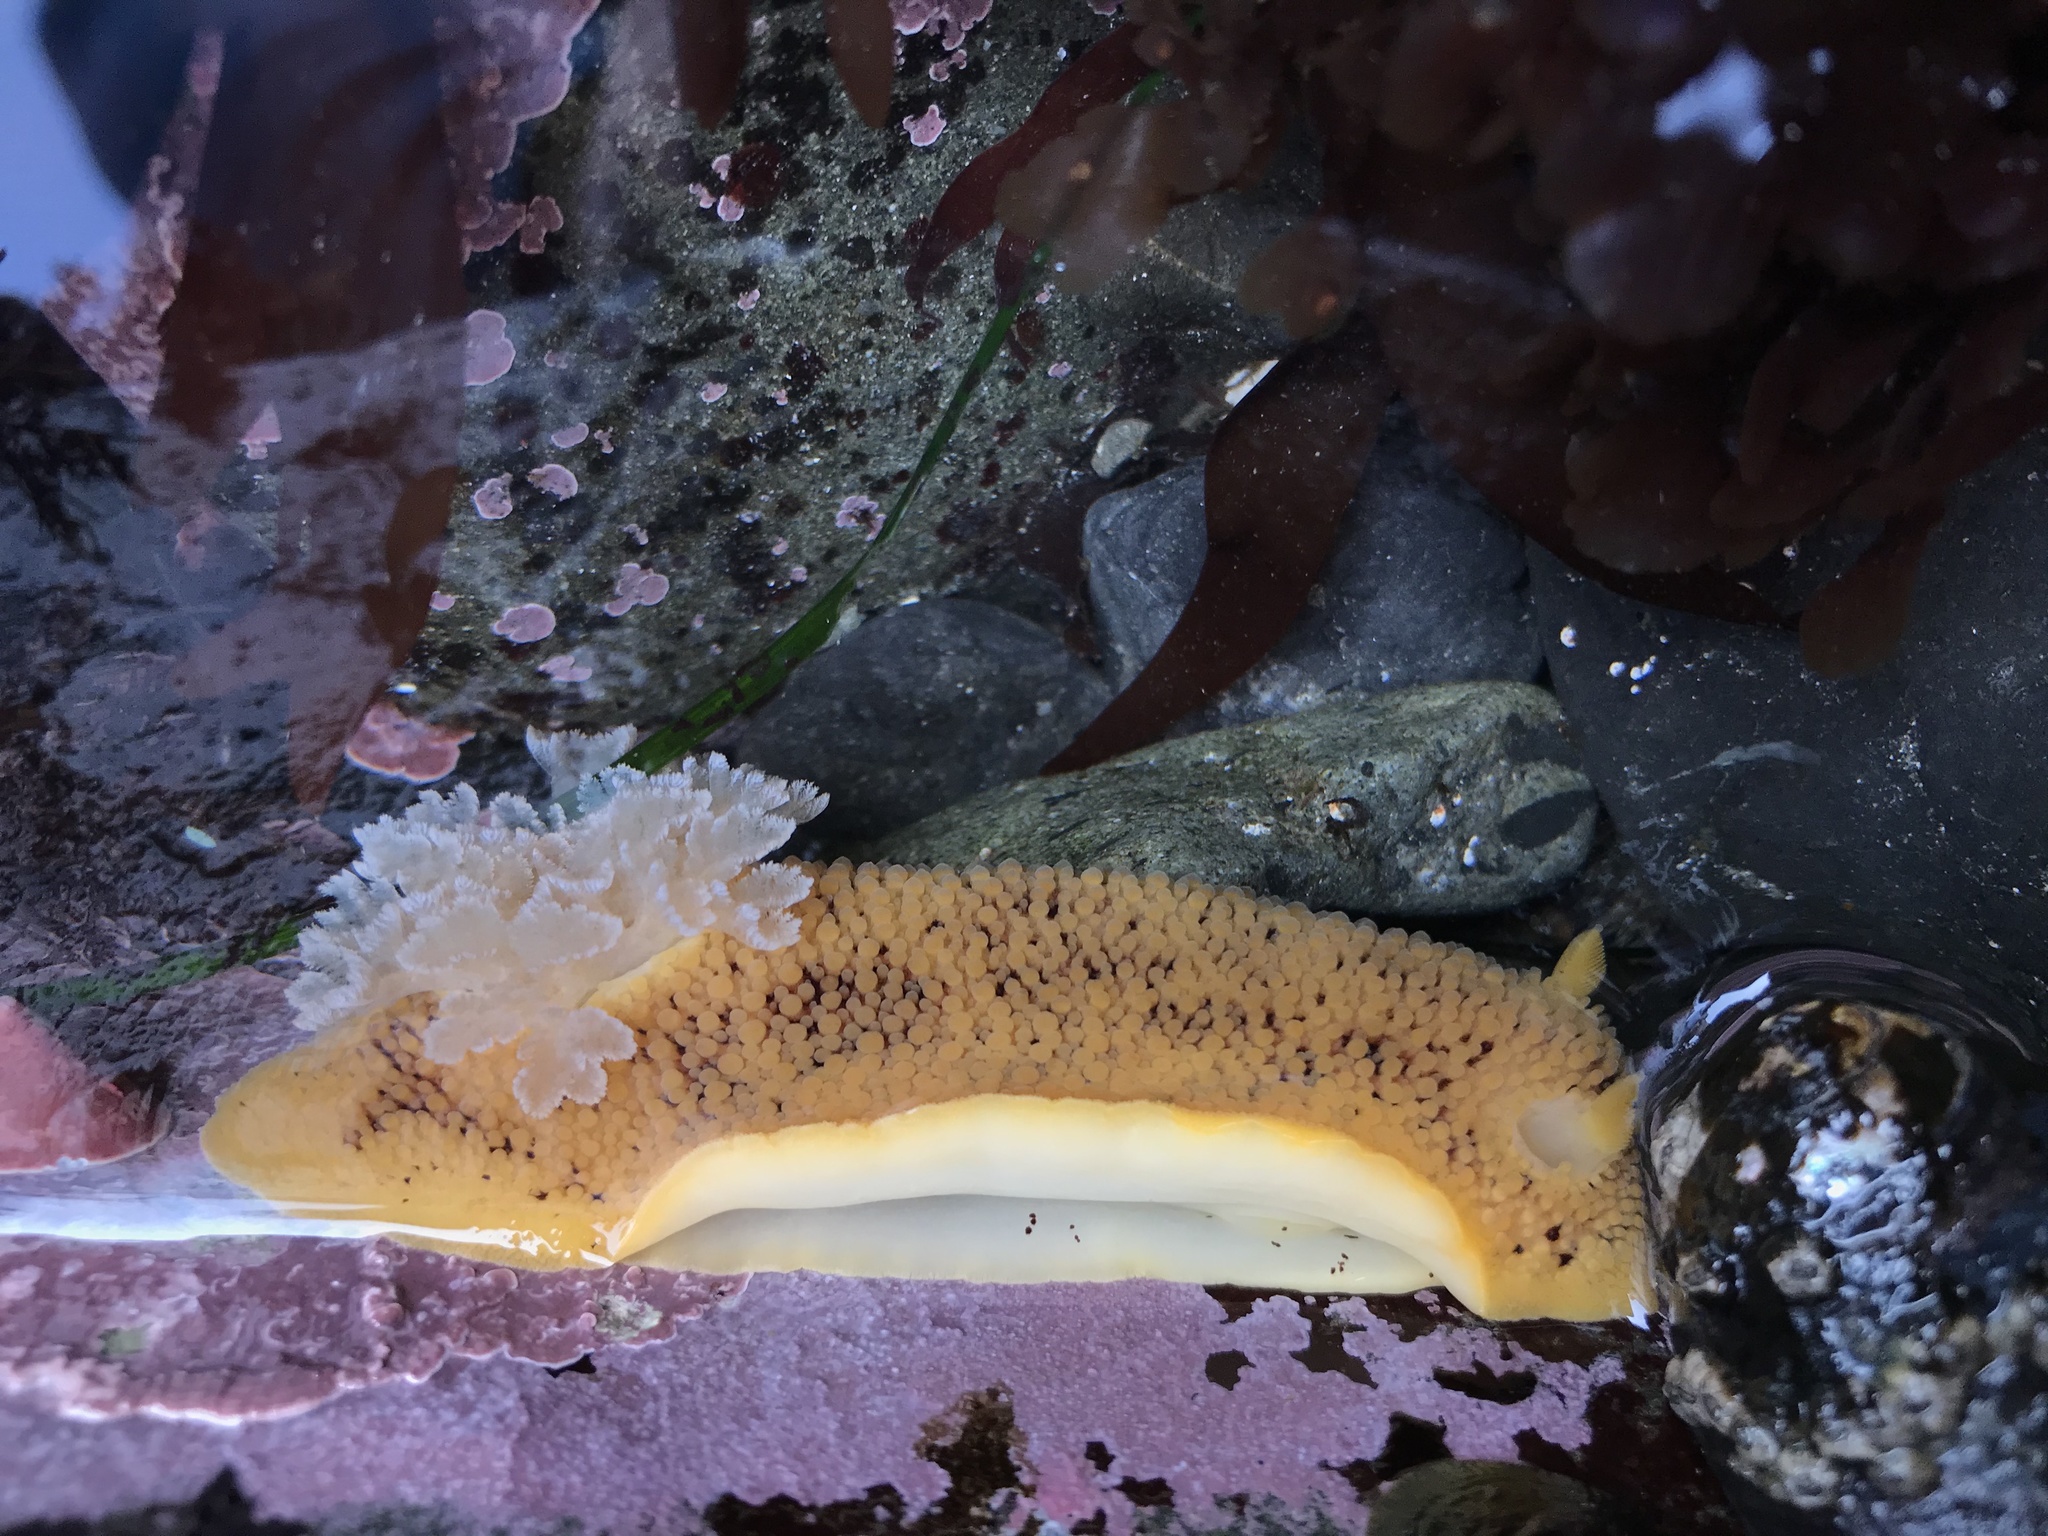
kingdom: Animalia
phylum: Mollusca
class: Gastropoda
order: Nudibranchia
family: Discodorididae
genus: Peltodoris
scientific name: Peltodoris nobilis
